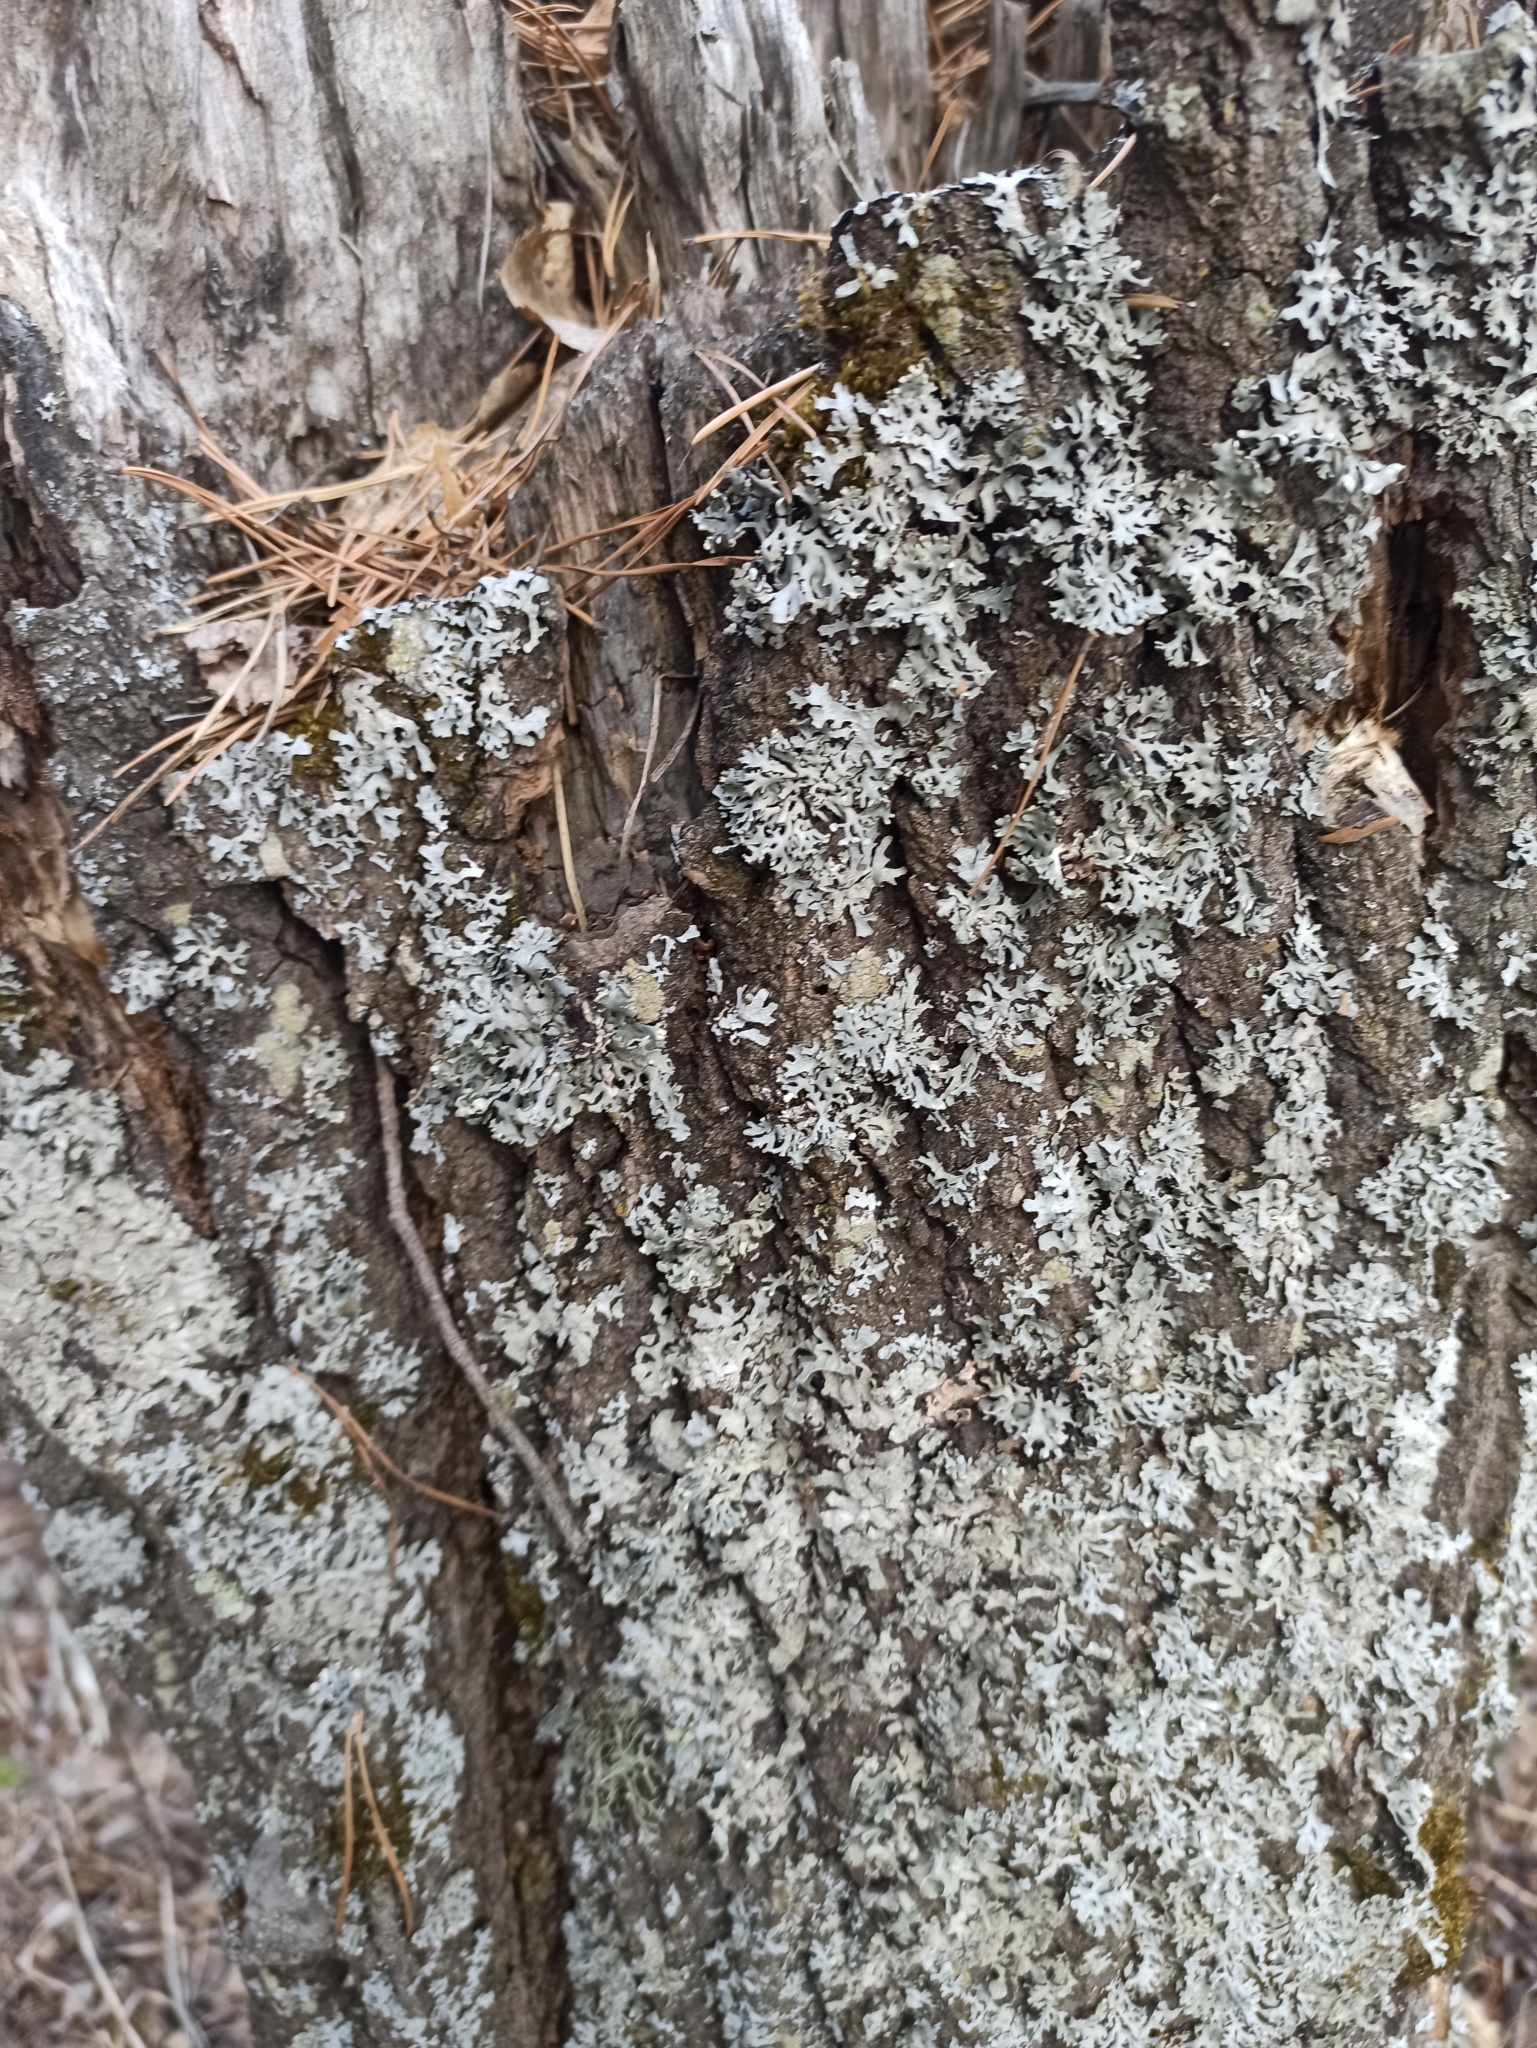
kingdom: Fungi
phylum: Ascomycota
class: Lecanoromycetes
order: Lecanorales
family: Parmeliaceae
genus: Parmelia
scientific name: Parmelia sulcata
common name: Netted shield lichen
